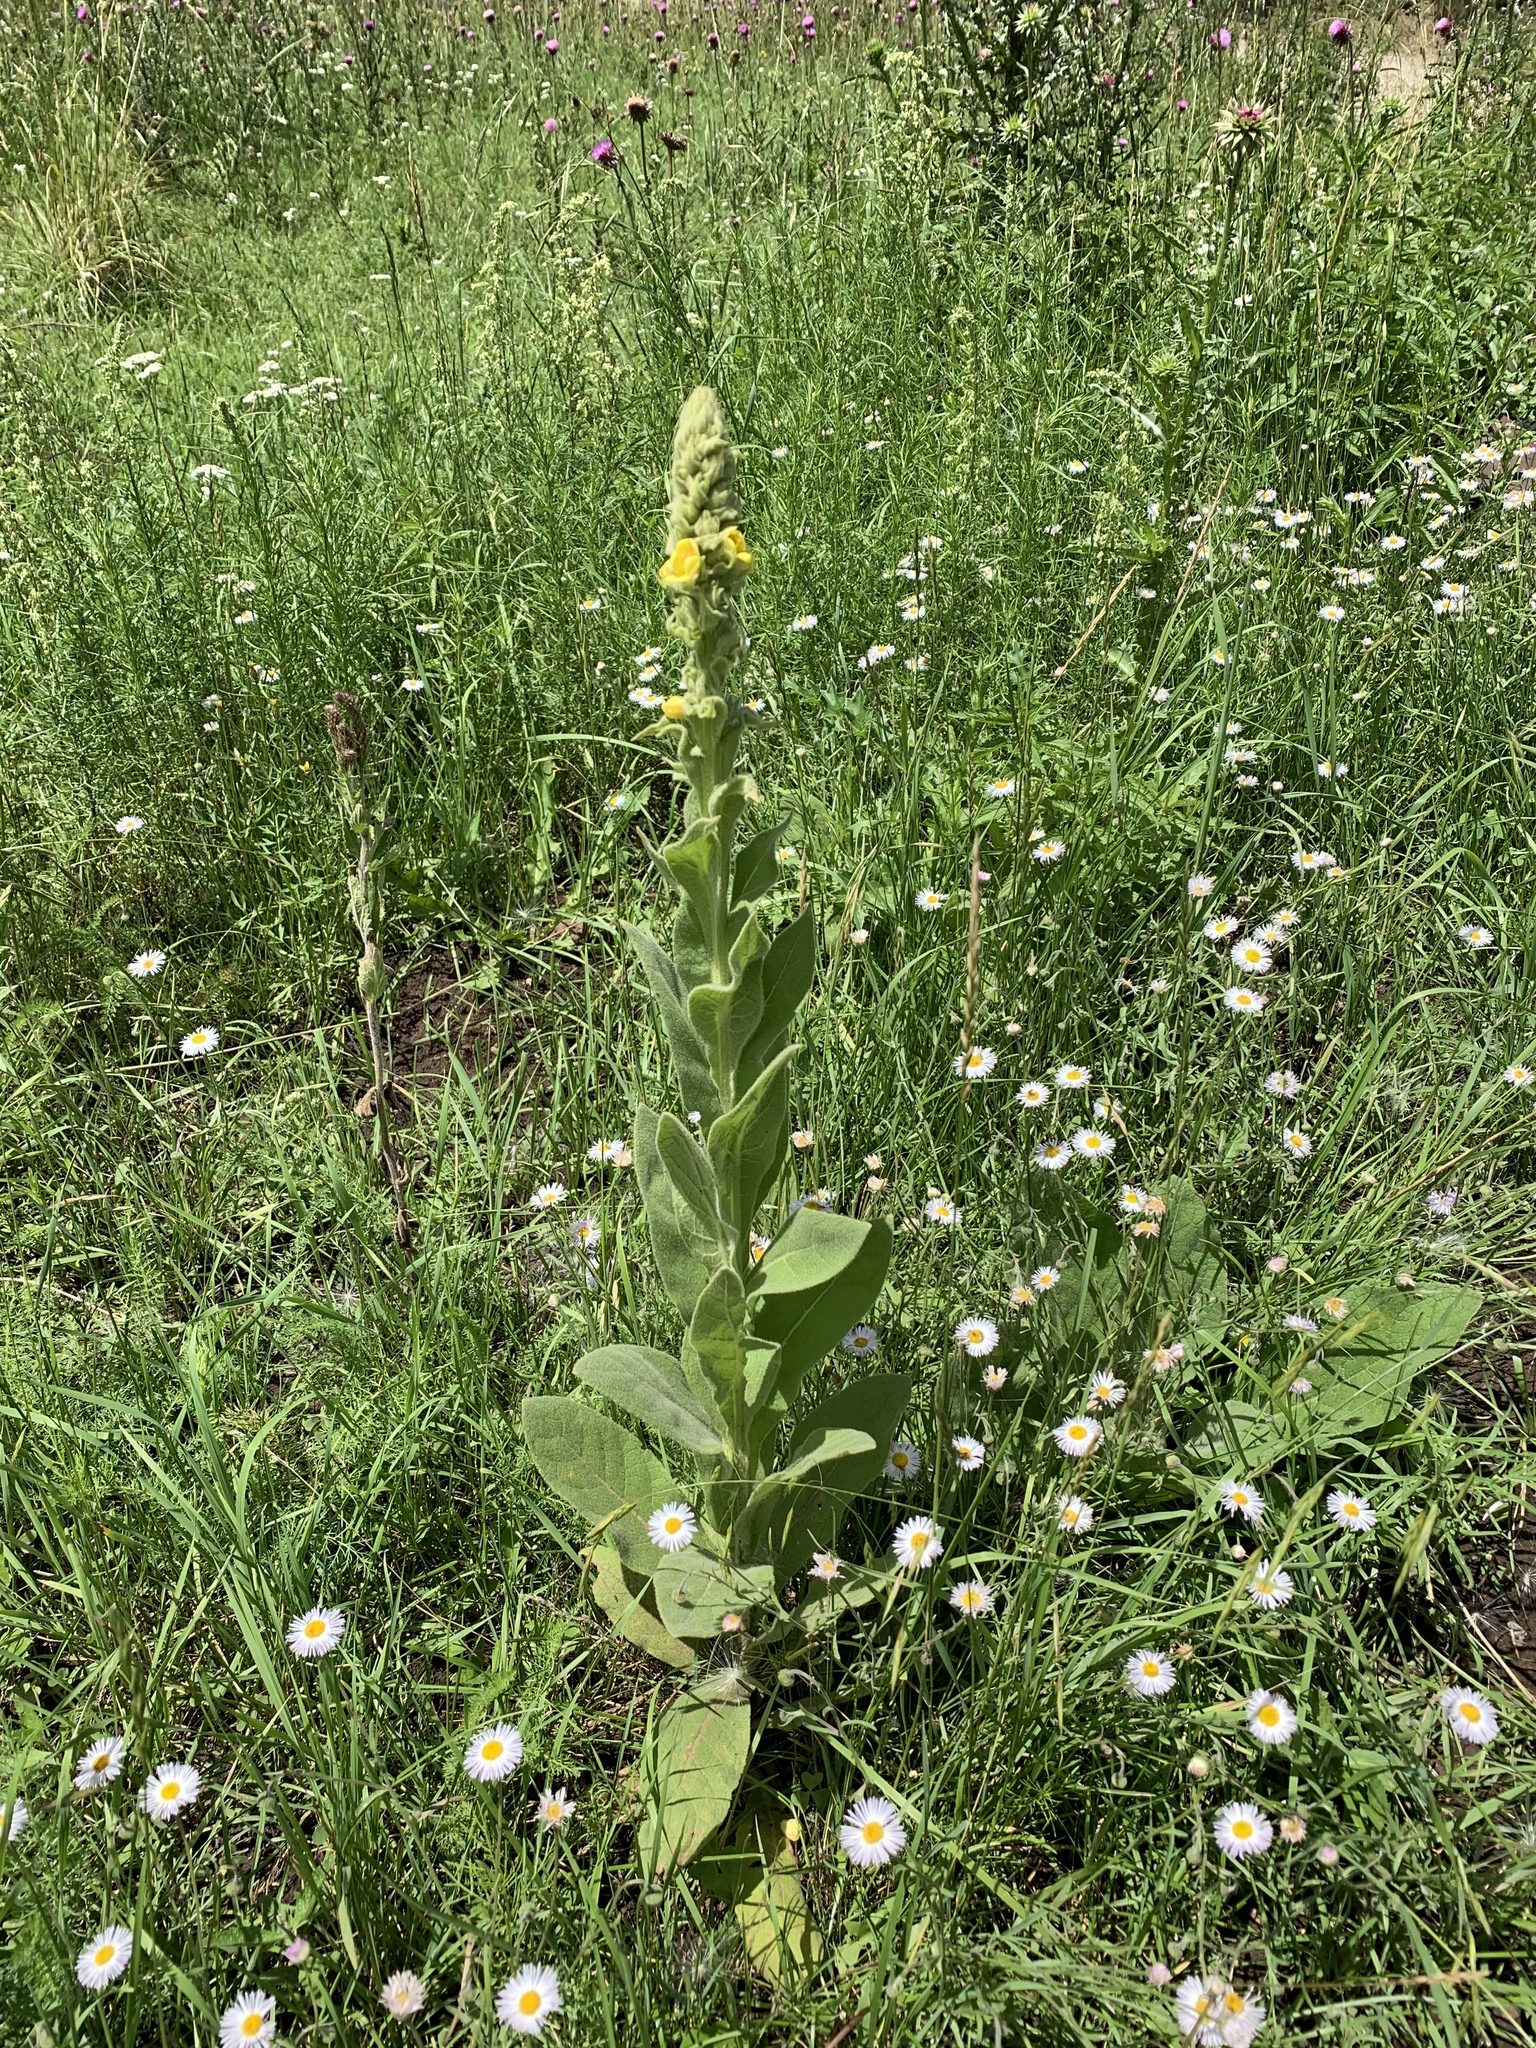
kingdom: Plantae
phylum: Tracheophyta
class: Magnoliopsida
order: Lamiales
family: Scrophulariaceae
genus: Verbascum
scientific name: Verbascum thapsus
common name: Common mullein
